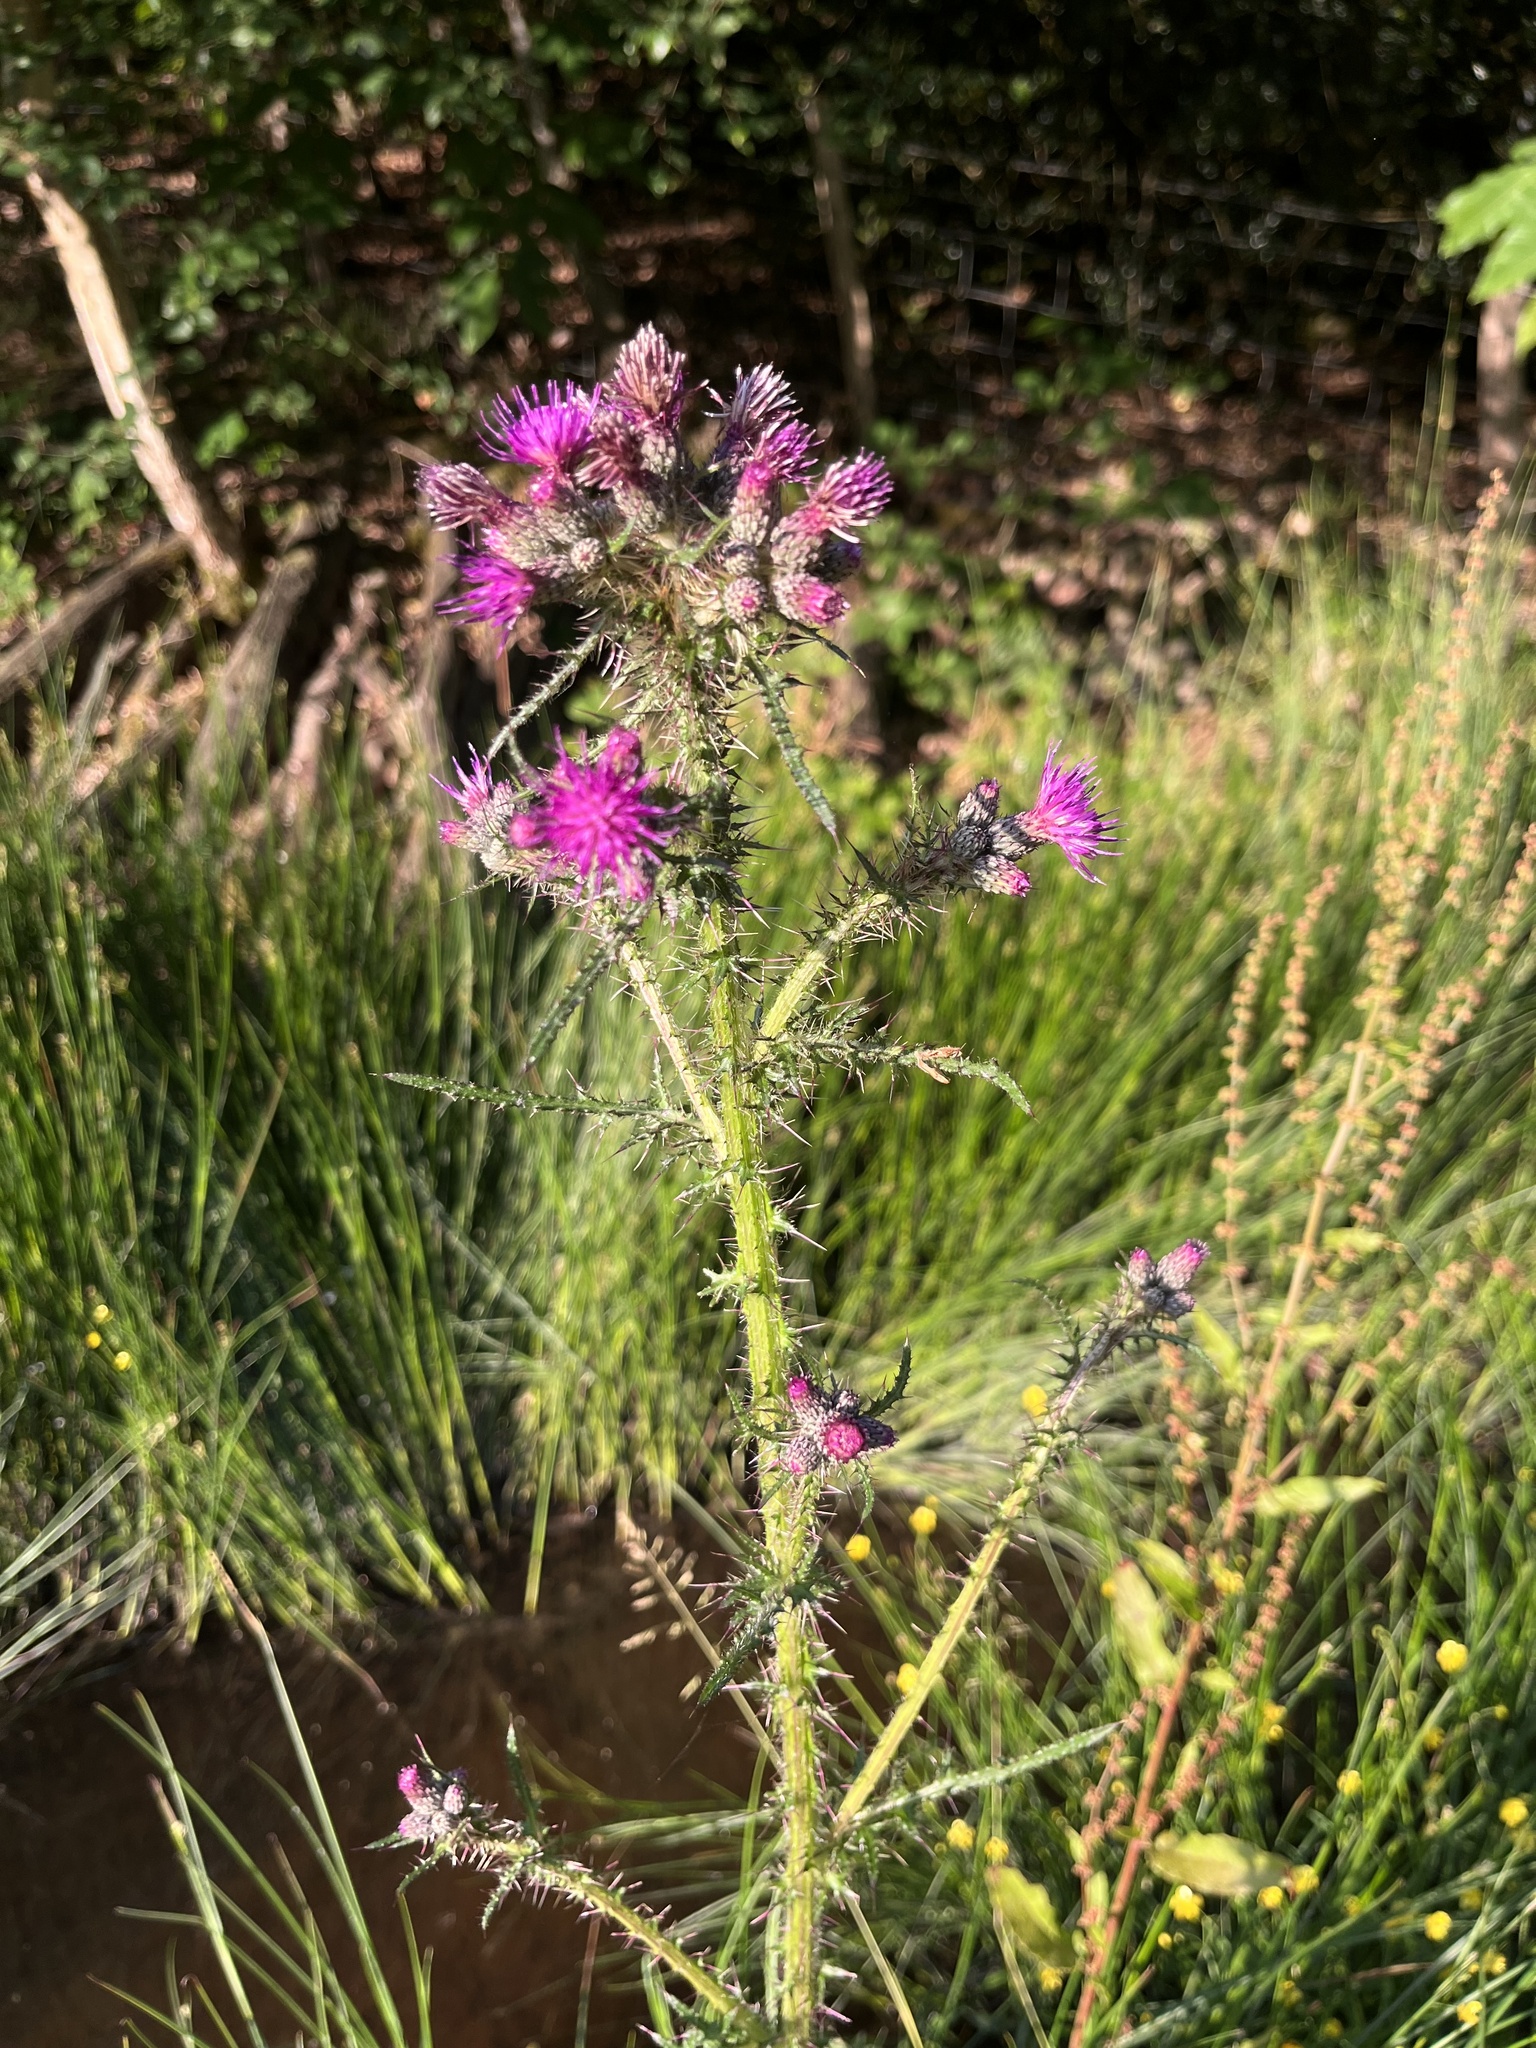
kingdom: Plantae
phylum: Tracheophyta
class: Magnoliopsida
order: Asterales
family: Asteraceae
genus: Cirsium
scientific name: Cirsium palustre
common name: Marsh thistle
